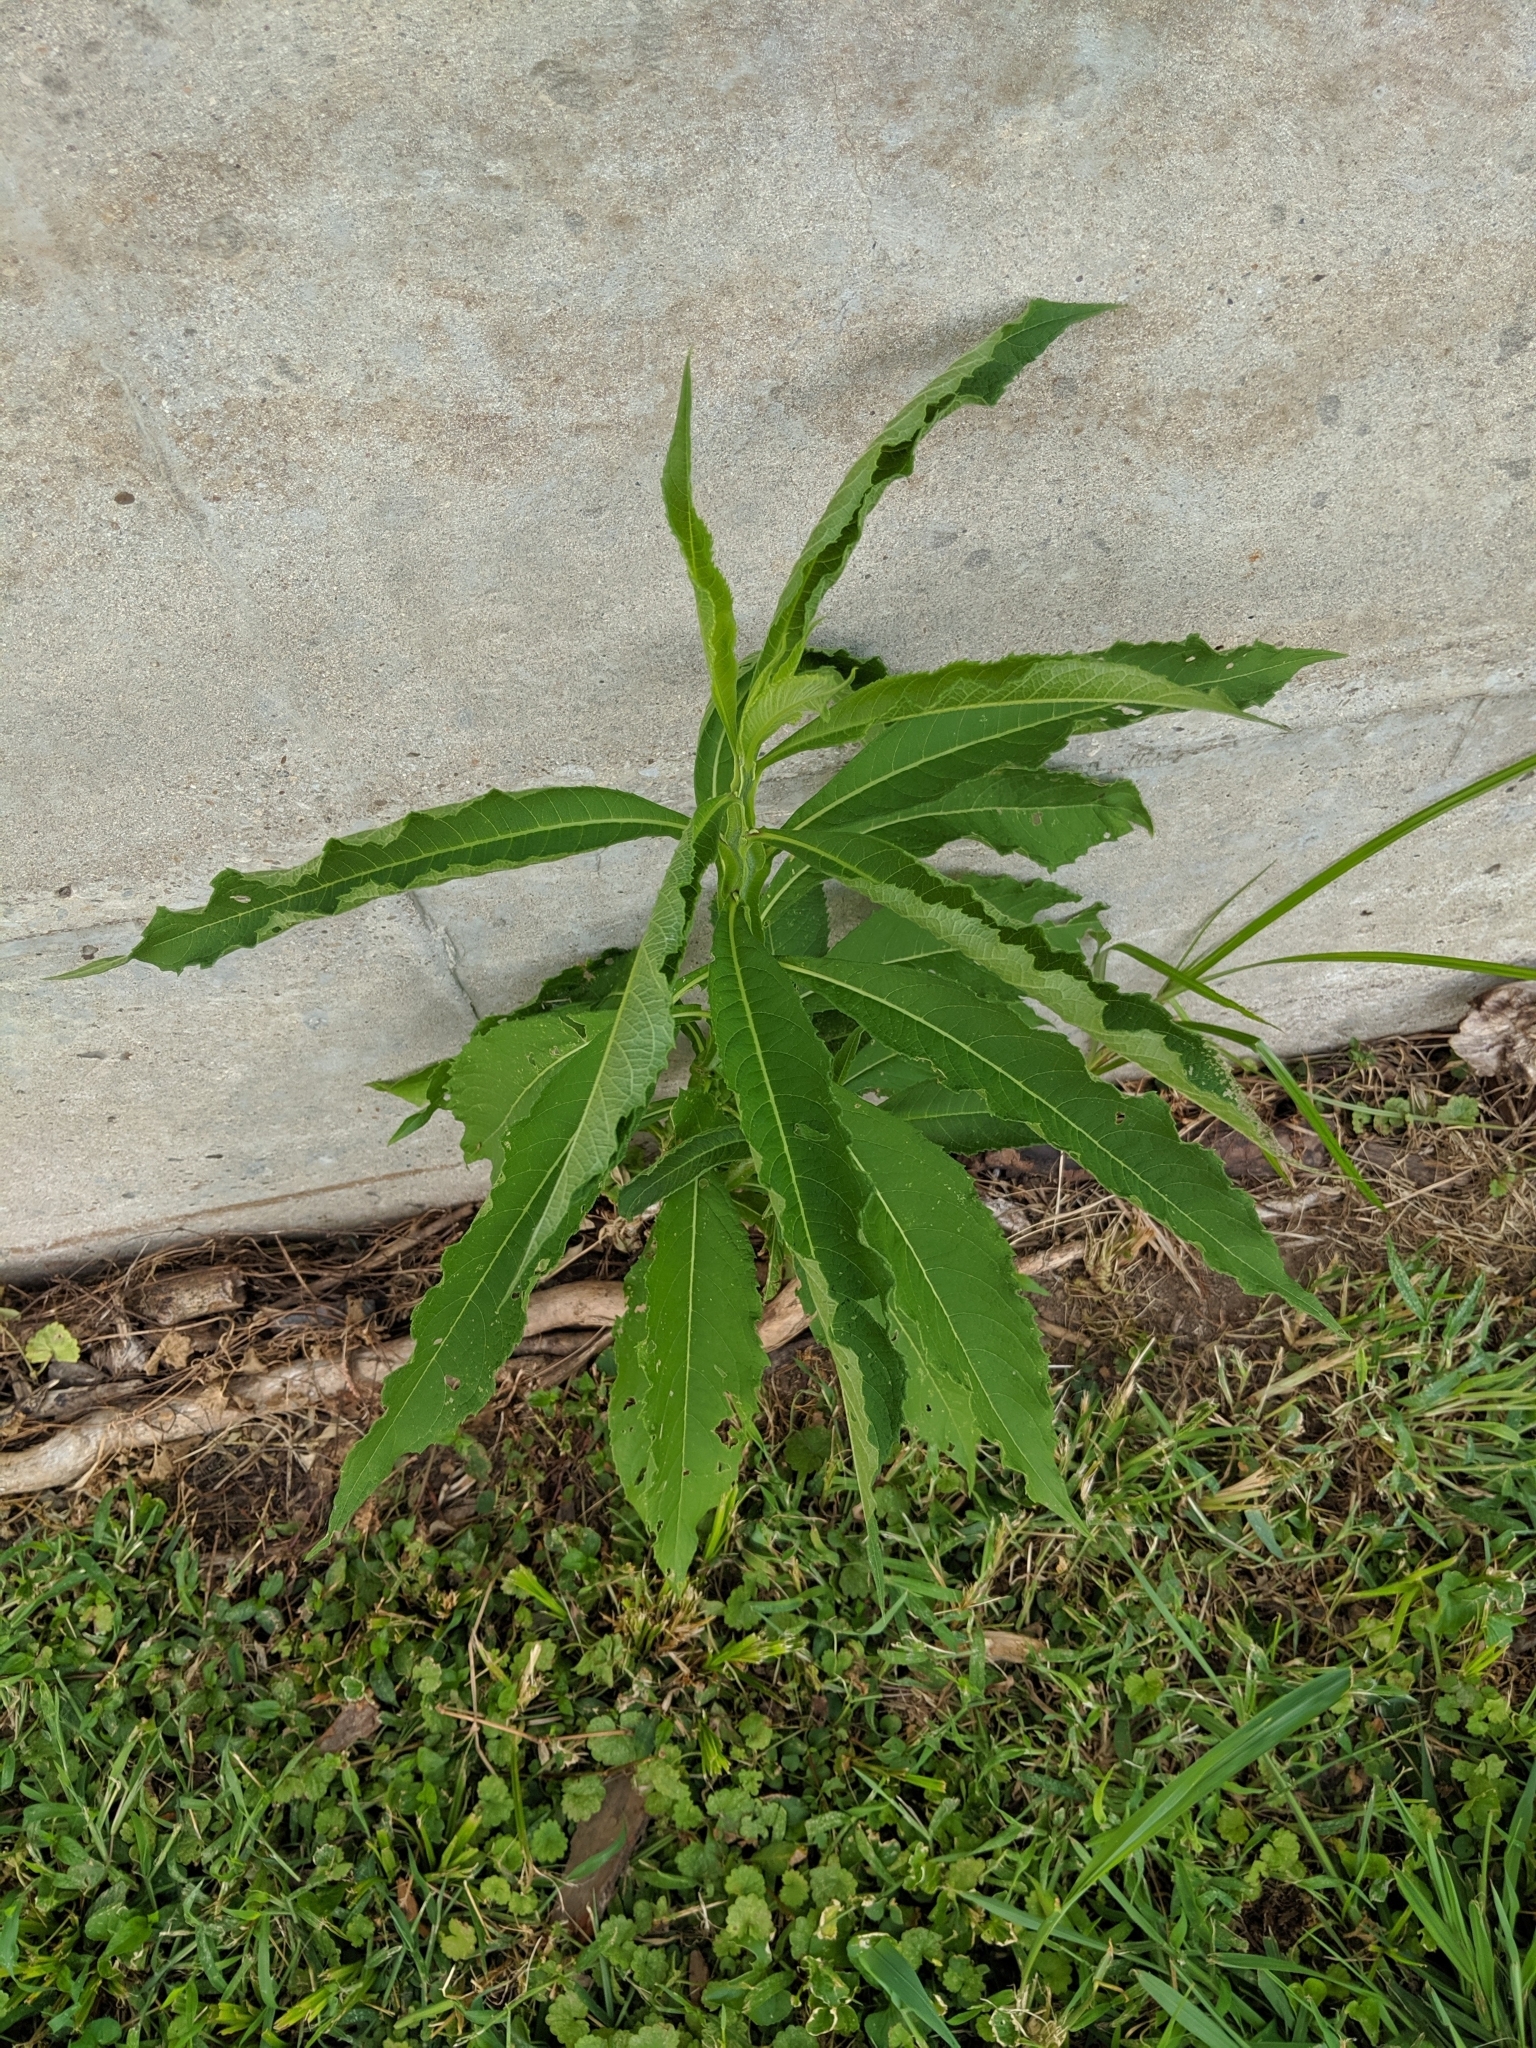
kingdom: Plantae
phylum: Tracheophyta
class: Magnoliopsida
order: Asterales
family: Asteraceae
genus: Verbesina
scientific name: Verbesina alternifolia
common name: Wingstem
